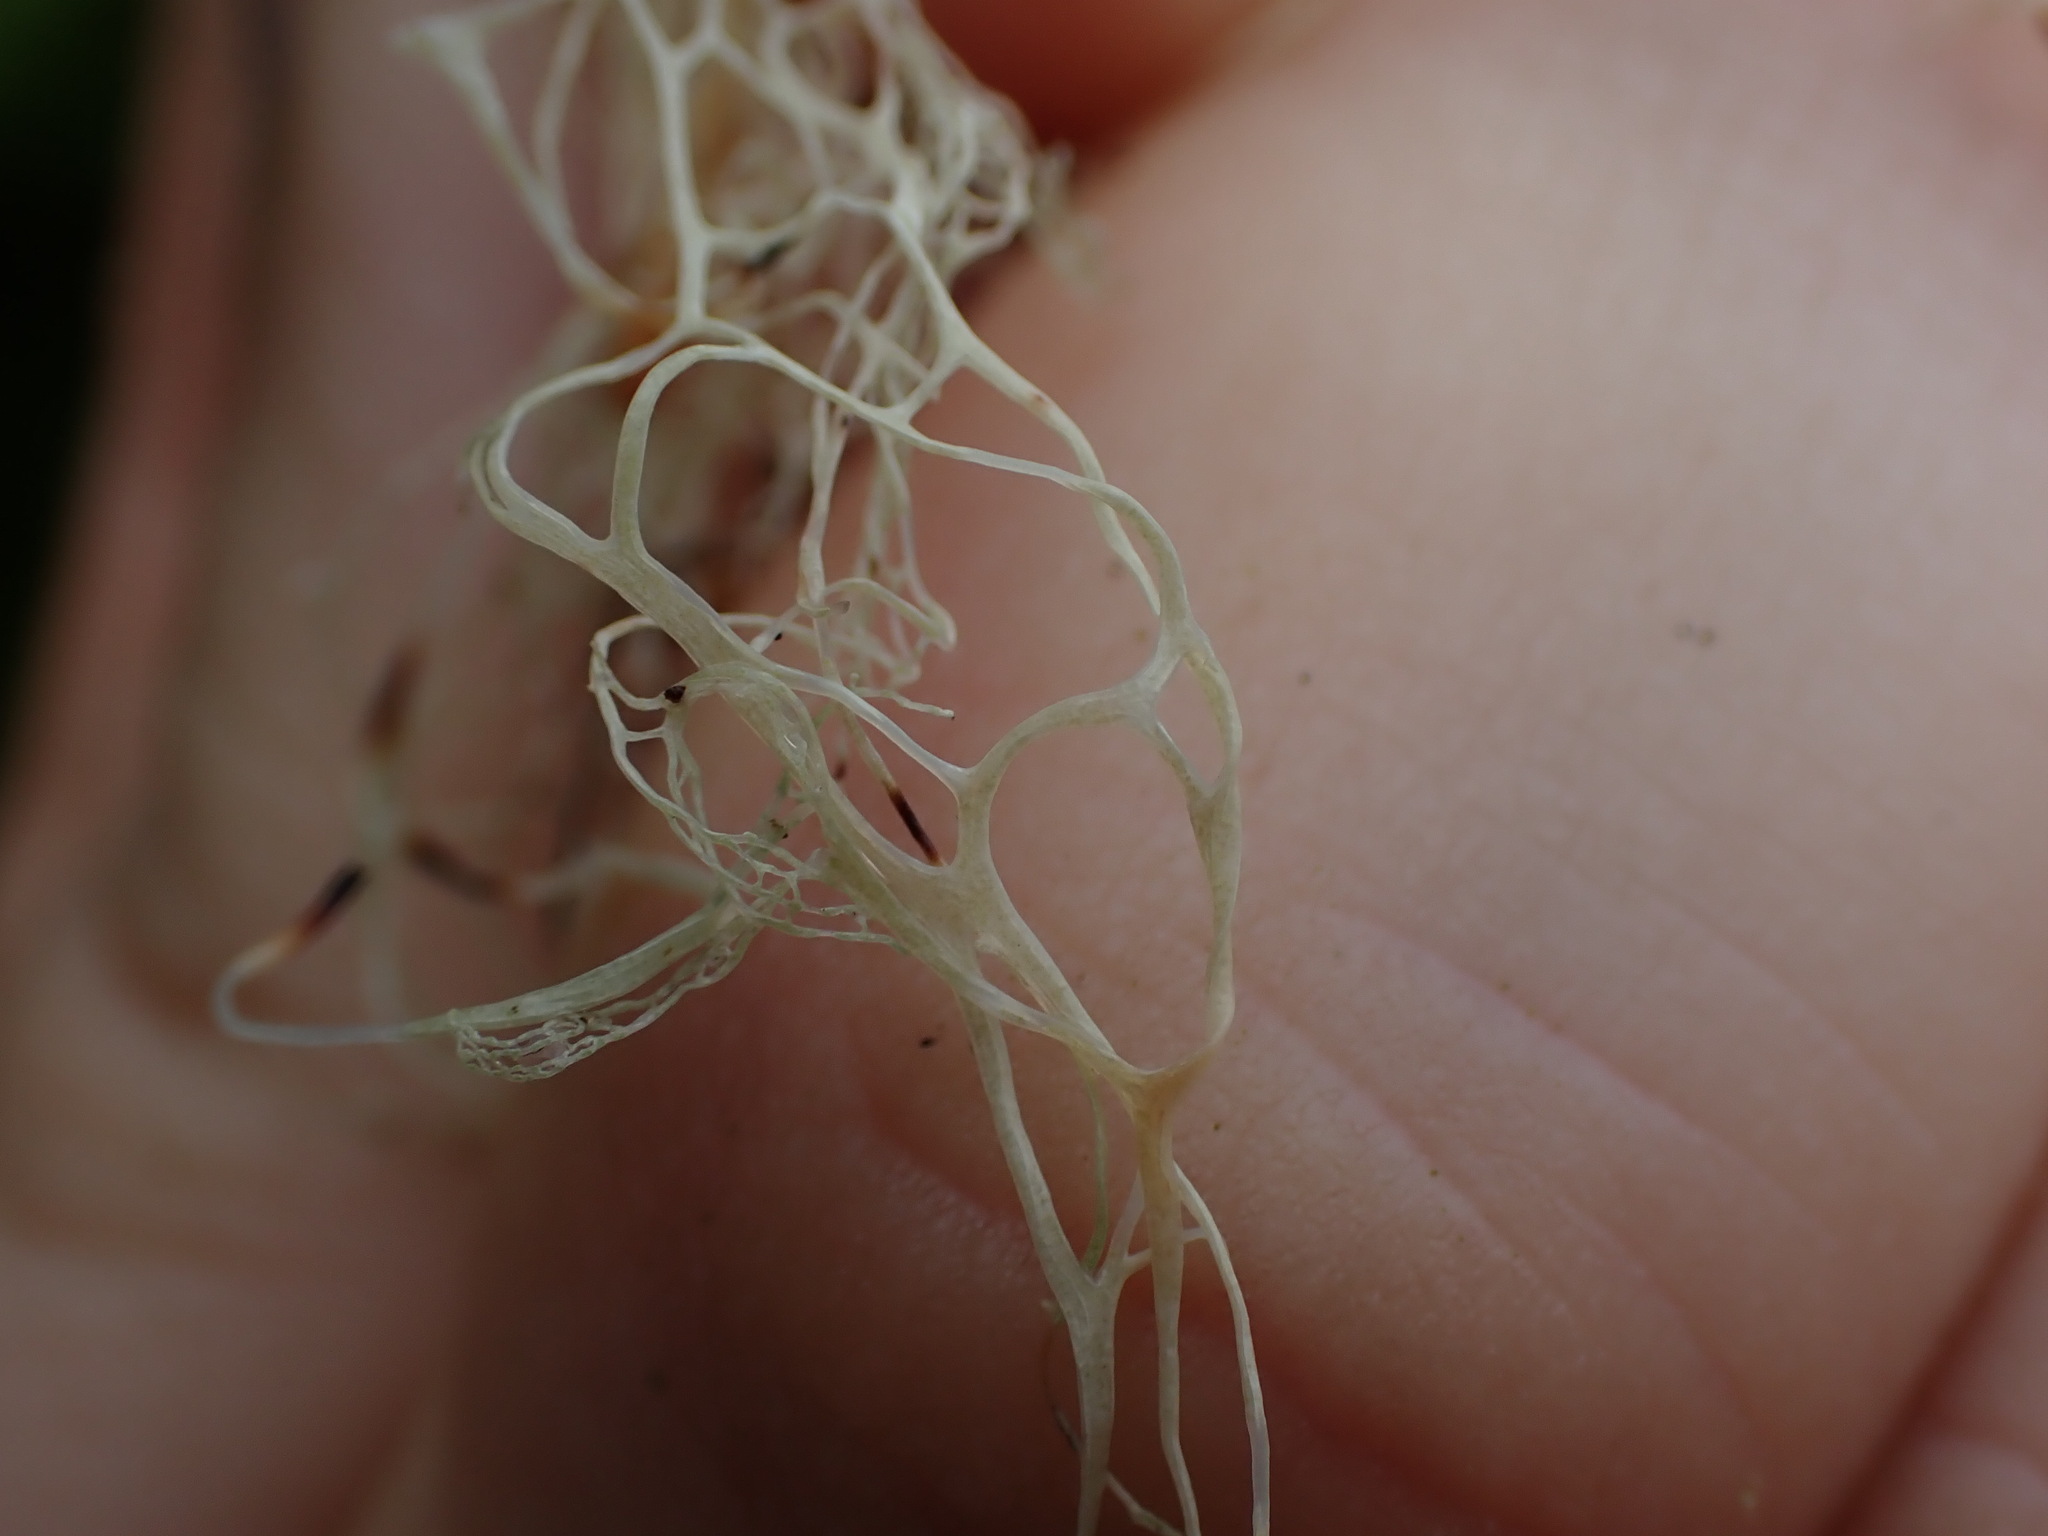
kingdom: Fungi
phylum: Ascomycota
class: Lecanoromycetes
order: Lecanorales
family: Ramalinaceae
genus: Ramalina
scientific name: Ramalina menziesii
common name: Lace lichen
